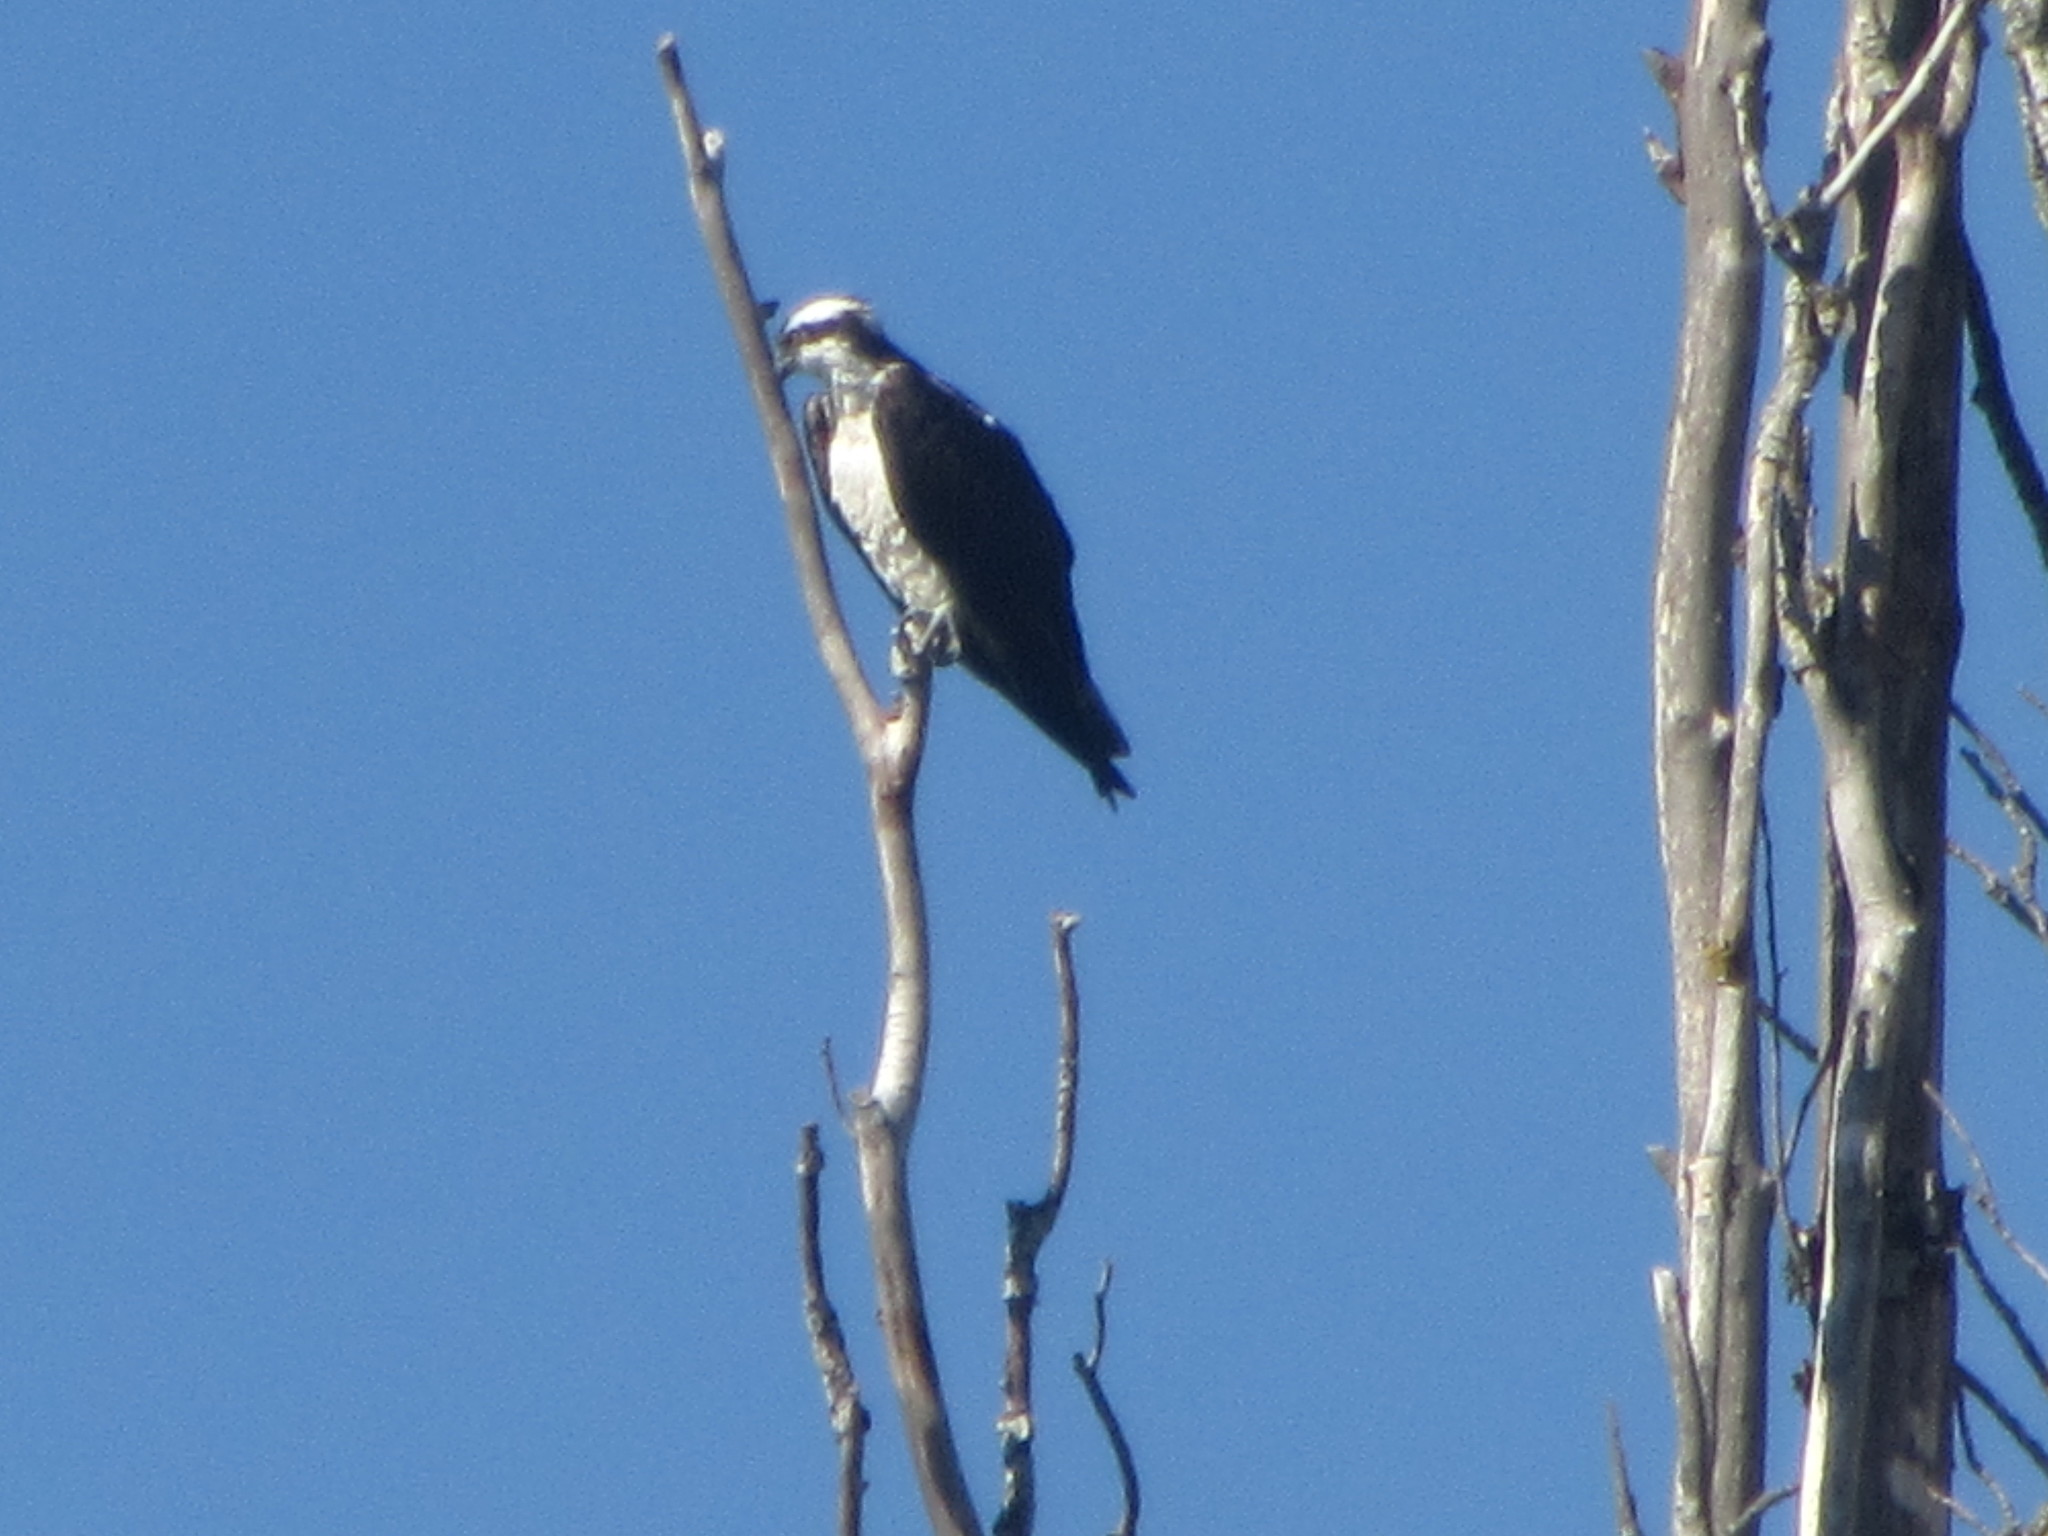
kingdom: Animalia
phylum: Chordata
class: Aves
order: Accipitriformes
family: Pandionidae
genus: Pandion
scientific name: Pandion haliaetus
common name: Osprey
